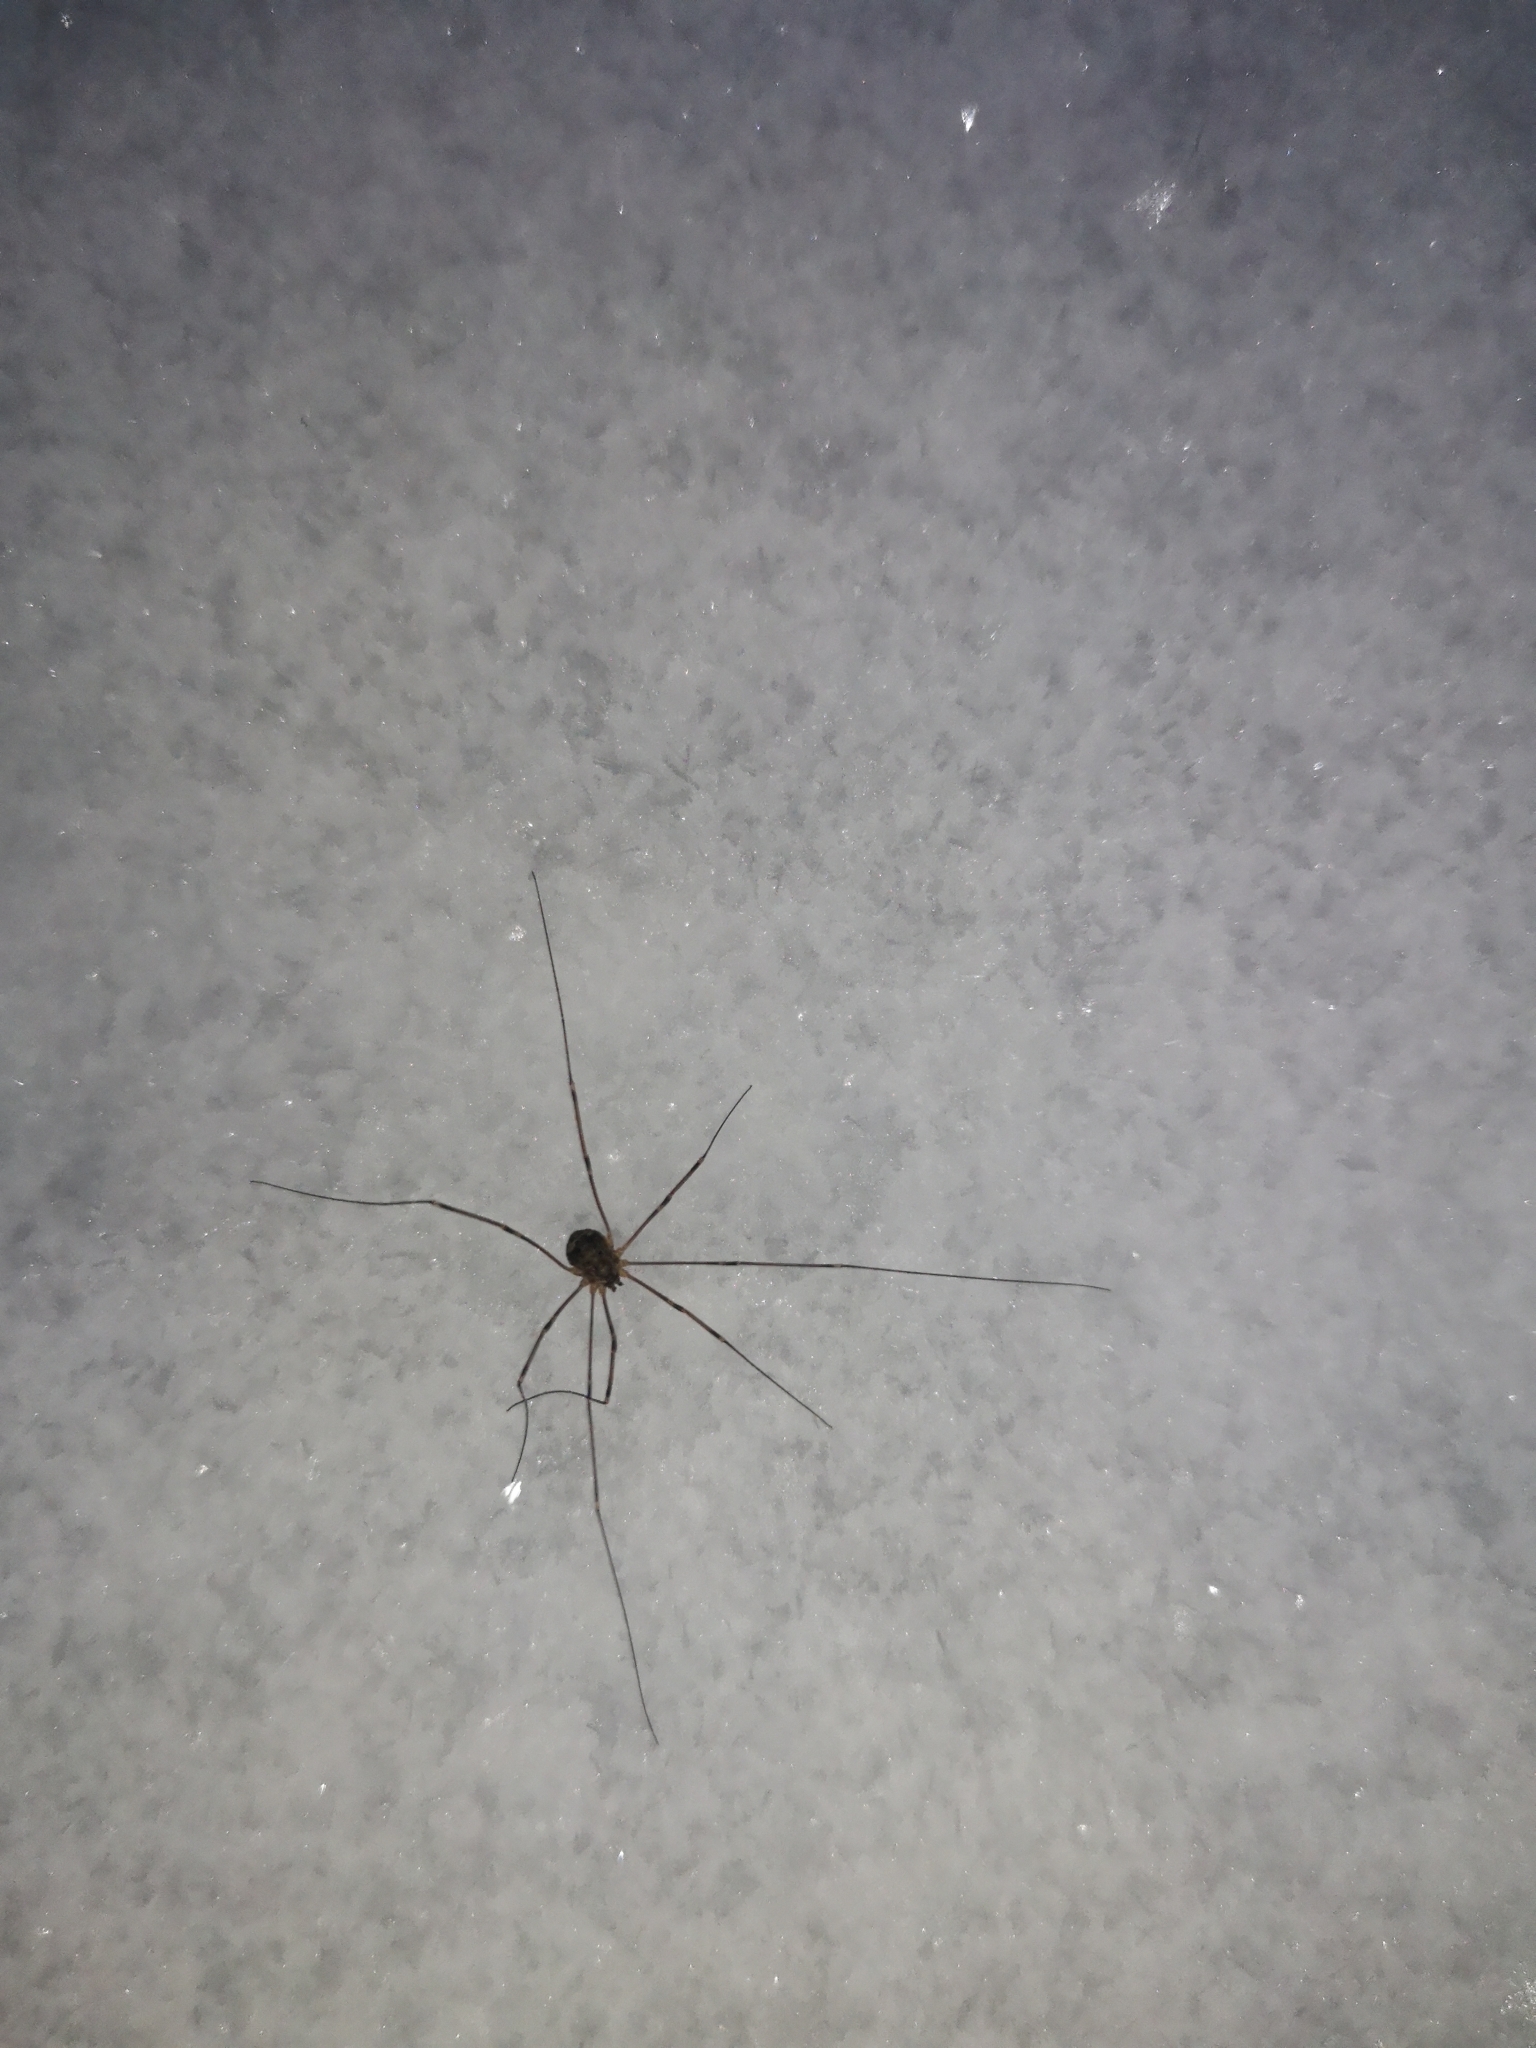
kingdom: Animalia
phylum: Arthropoda
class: Arachnida
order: Opiliones
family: Sclerosomatidae
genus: Leiobunum
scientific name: Leiobunum gracile
